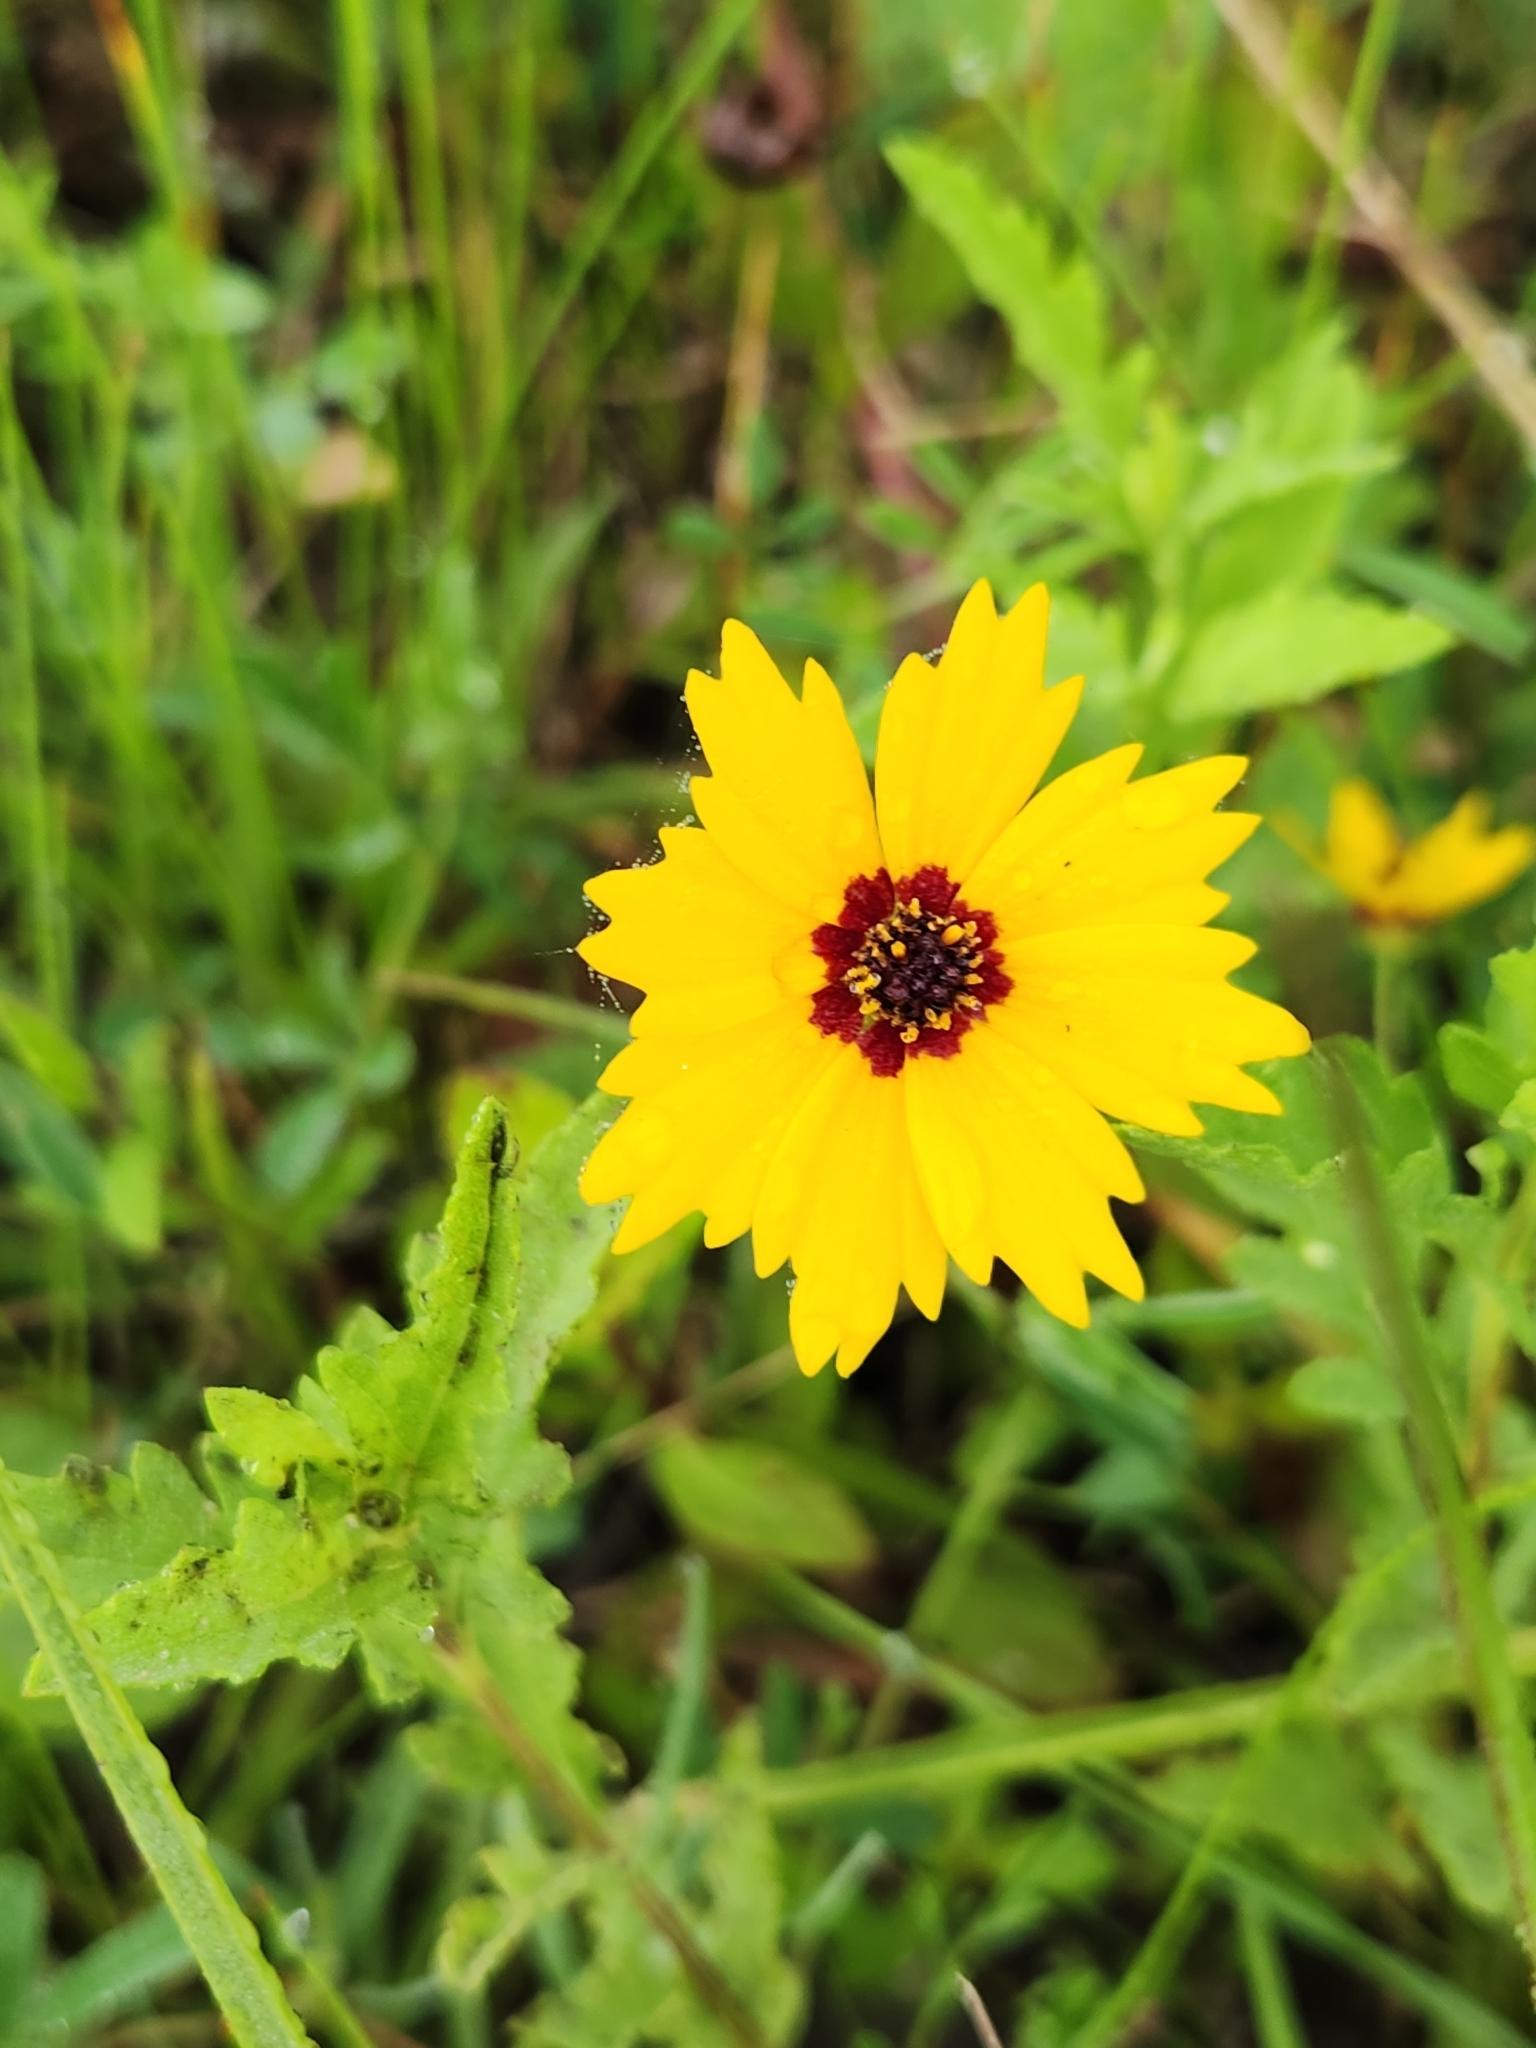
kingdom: Plantae
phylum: Tracheophyta
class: Magnoliopsida
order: Asterales
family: Asteraceae
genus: Coreopsis
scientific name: Coreopsis tinctoria
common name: Garden tickseed
